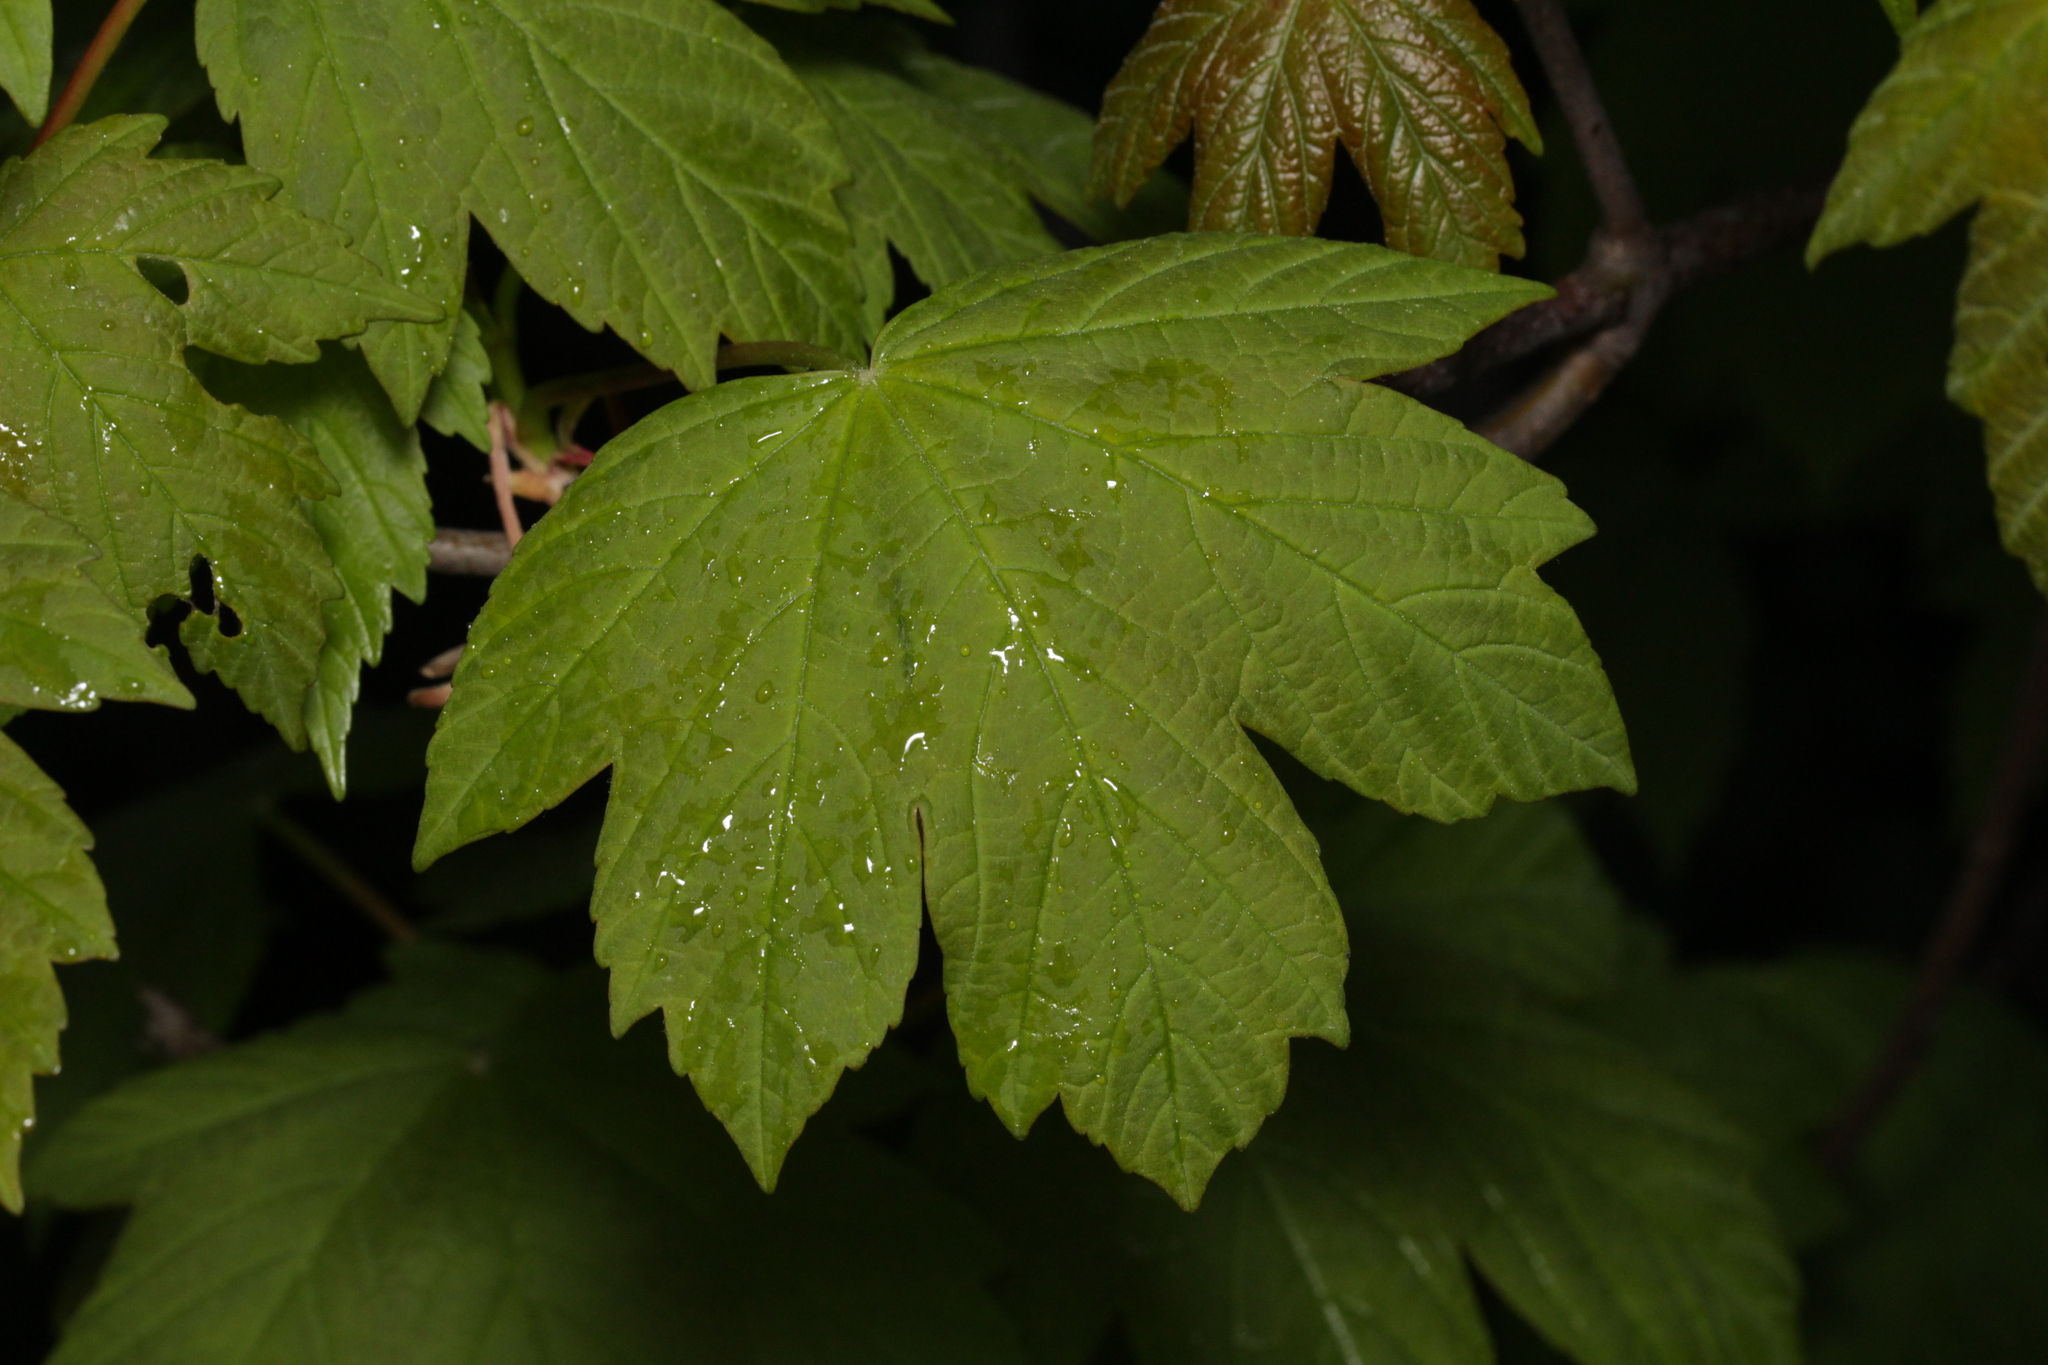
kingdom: Plantae
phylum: Tracheophyta
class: Magnoliopsida
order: Sapindales
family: Sapindaceae
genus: Acer
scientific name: Acer pseudoplatanus
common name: Sycamore
